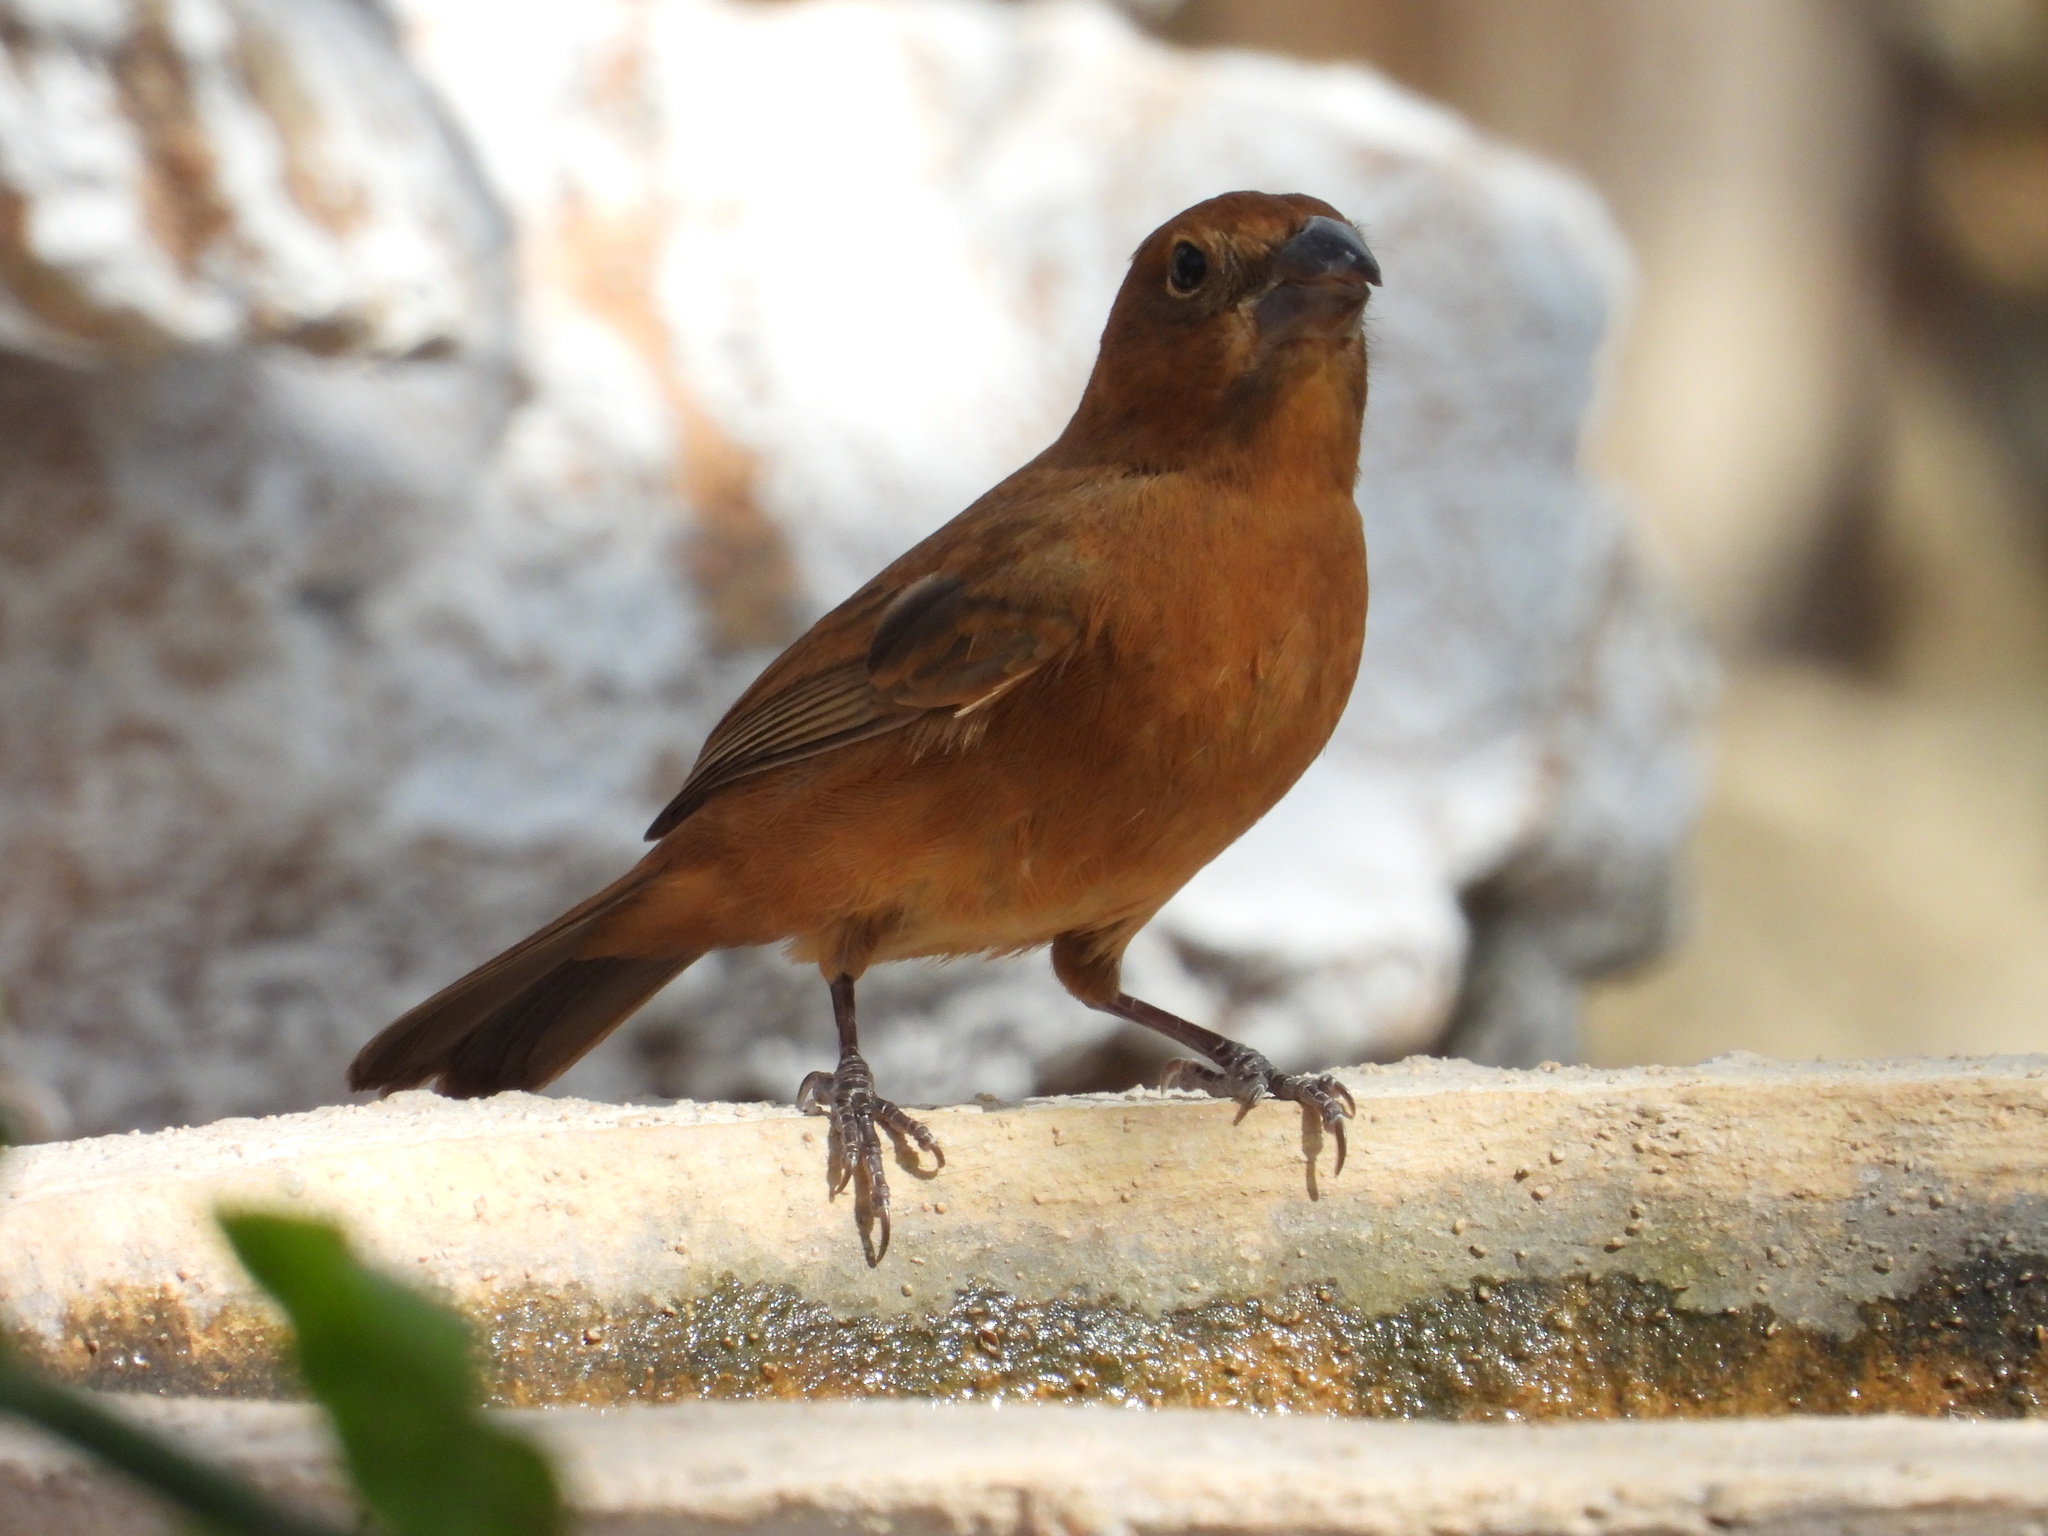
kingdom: Animalia
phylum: Chordata
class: Aves
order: Passeriformes
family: Cardinalidae
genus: Cyanocompsa
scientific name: Cyanocompsa parellina
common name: Blue bunting
